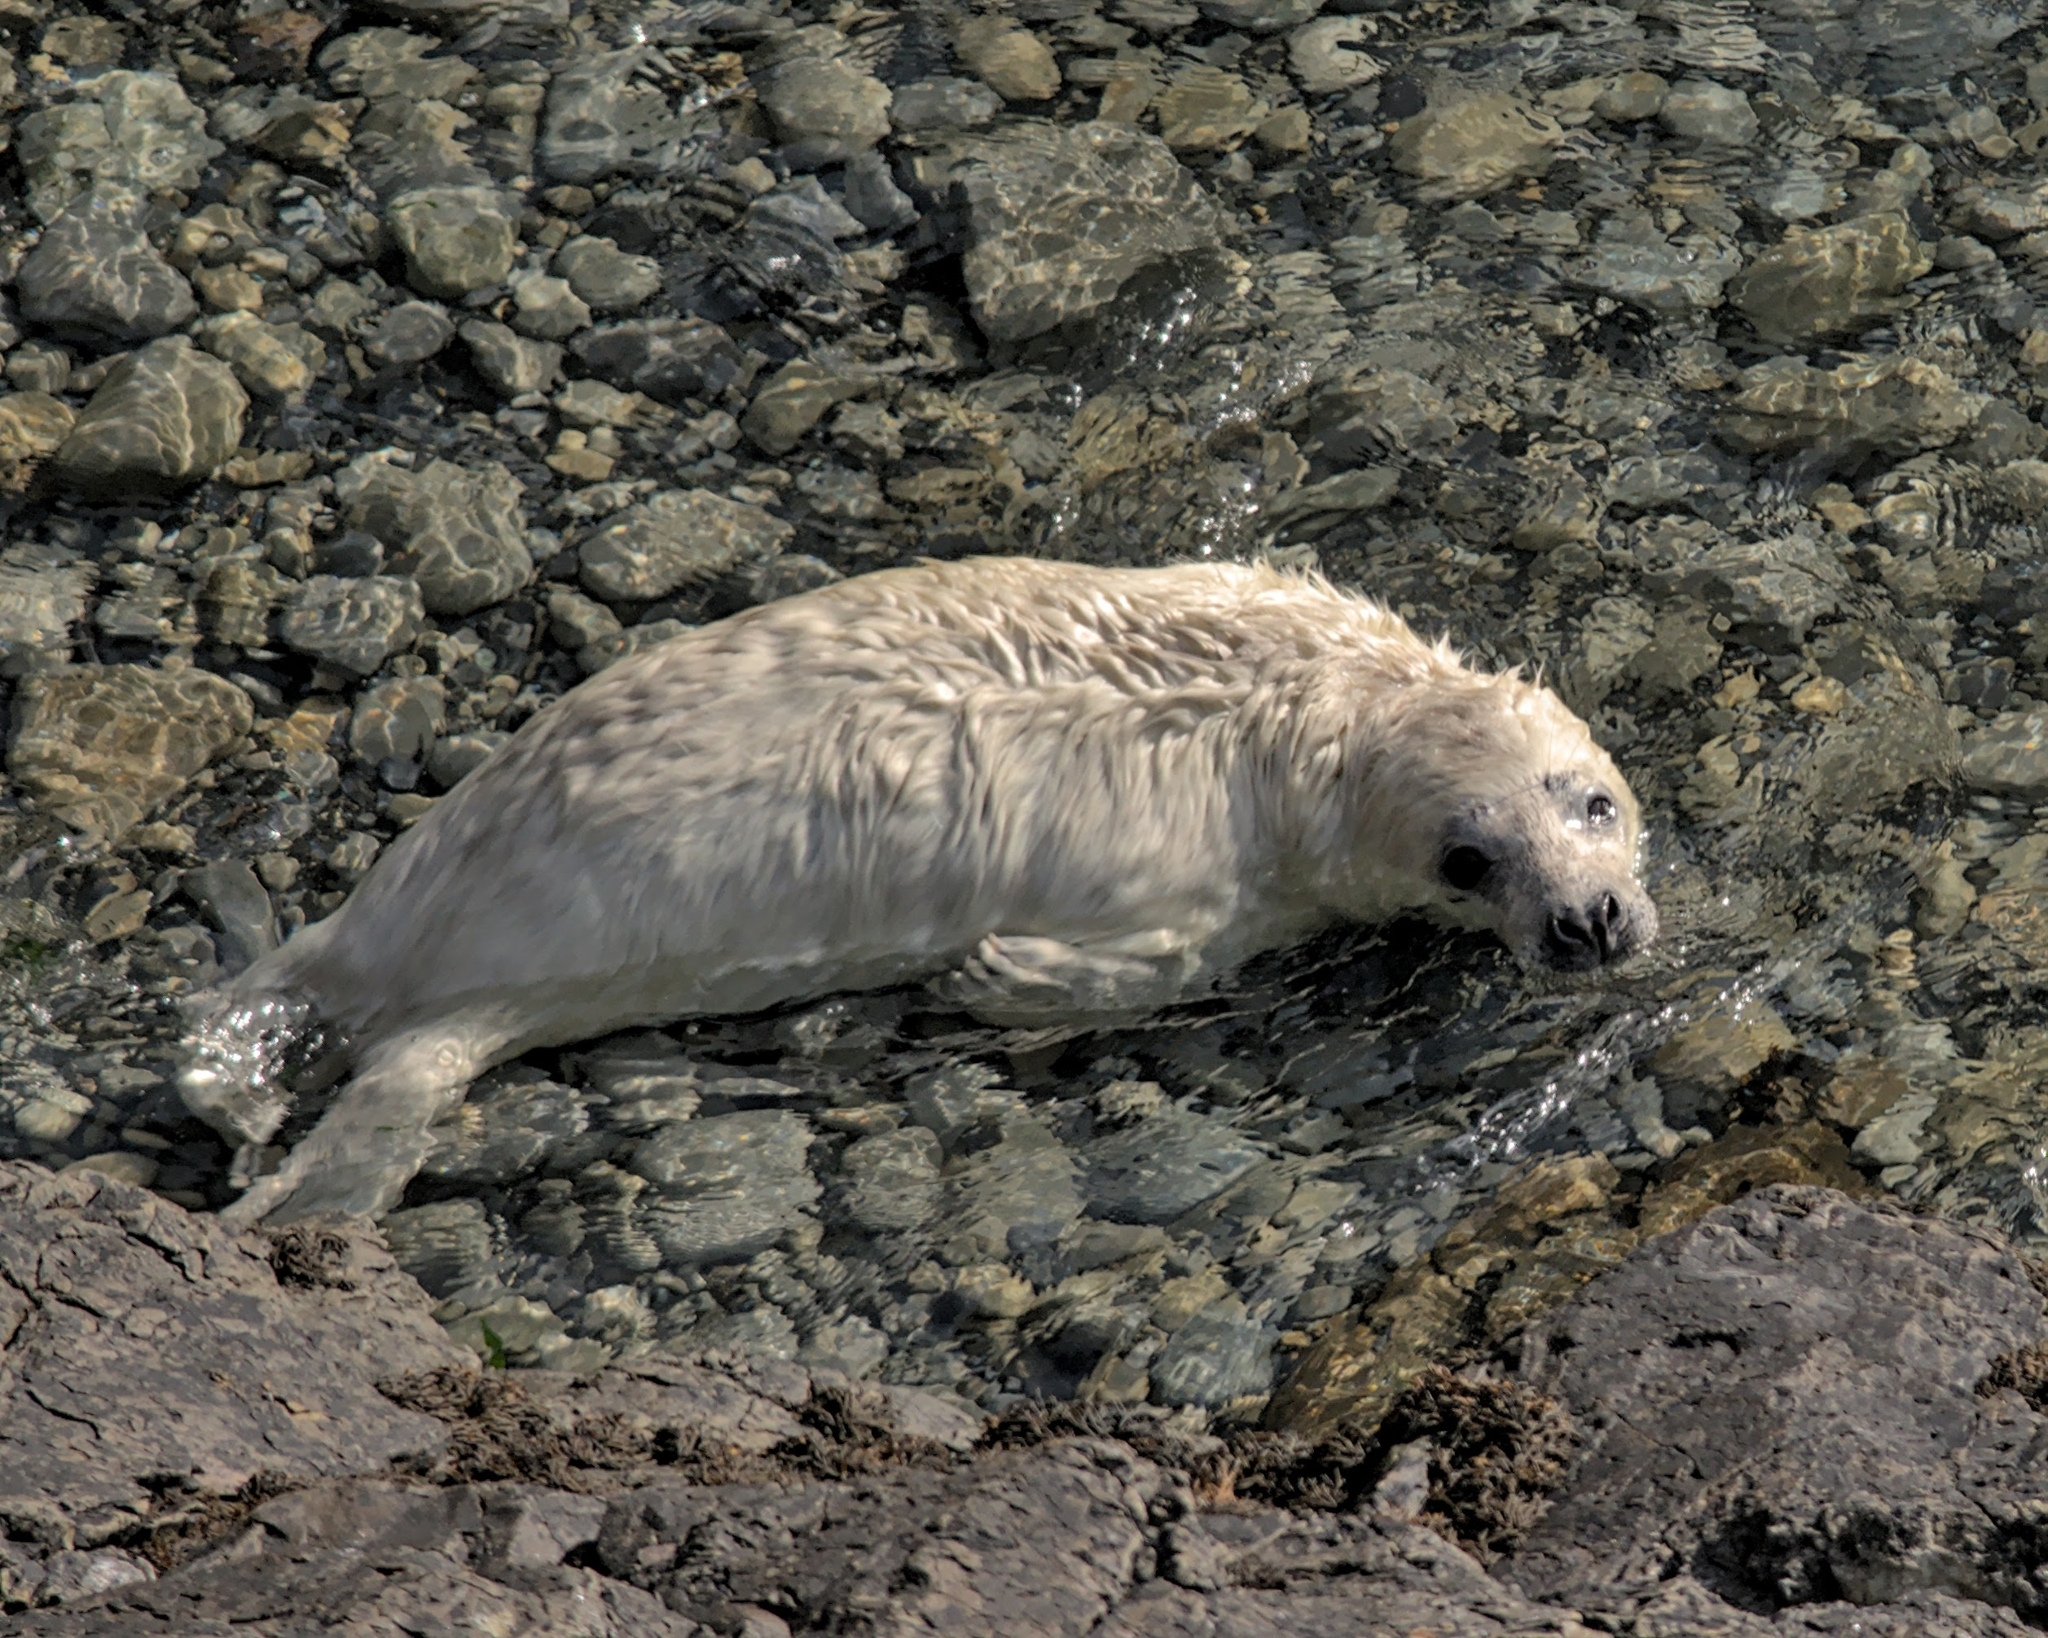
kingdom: Animalia
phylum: Chordata
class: Mammalia
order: Carnivora
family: Phocidae
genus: Halichoerus
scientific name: Halichoerus grypus
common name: Grey seal
